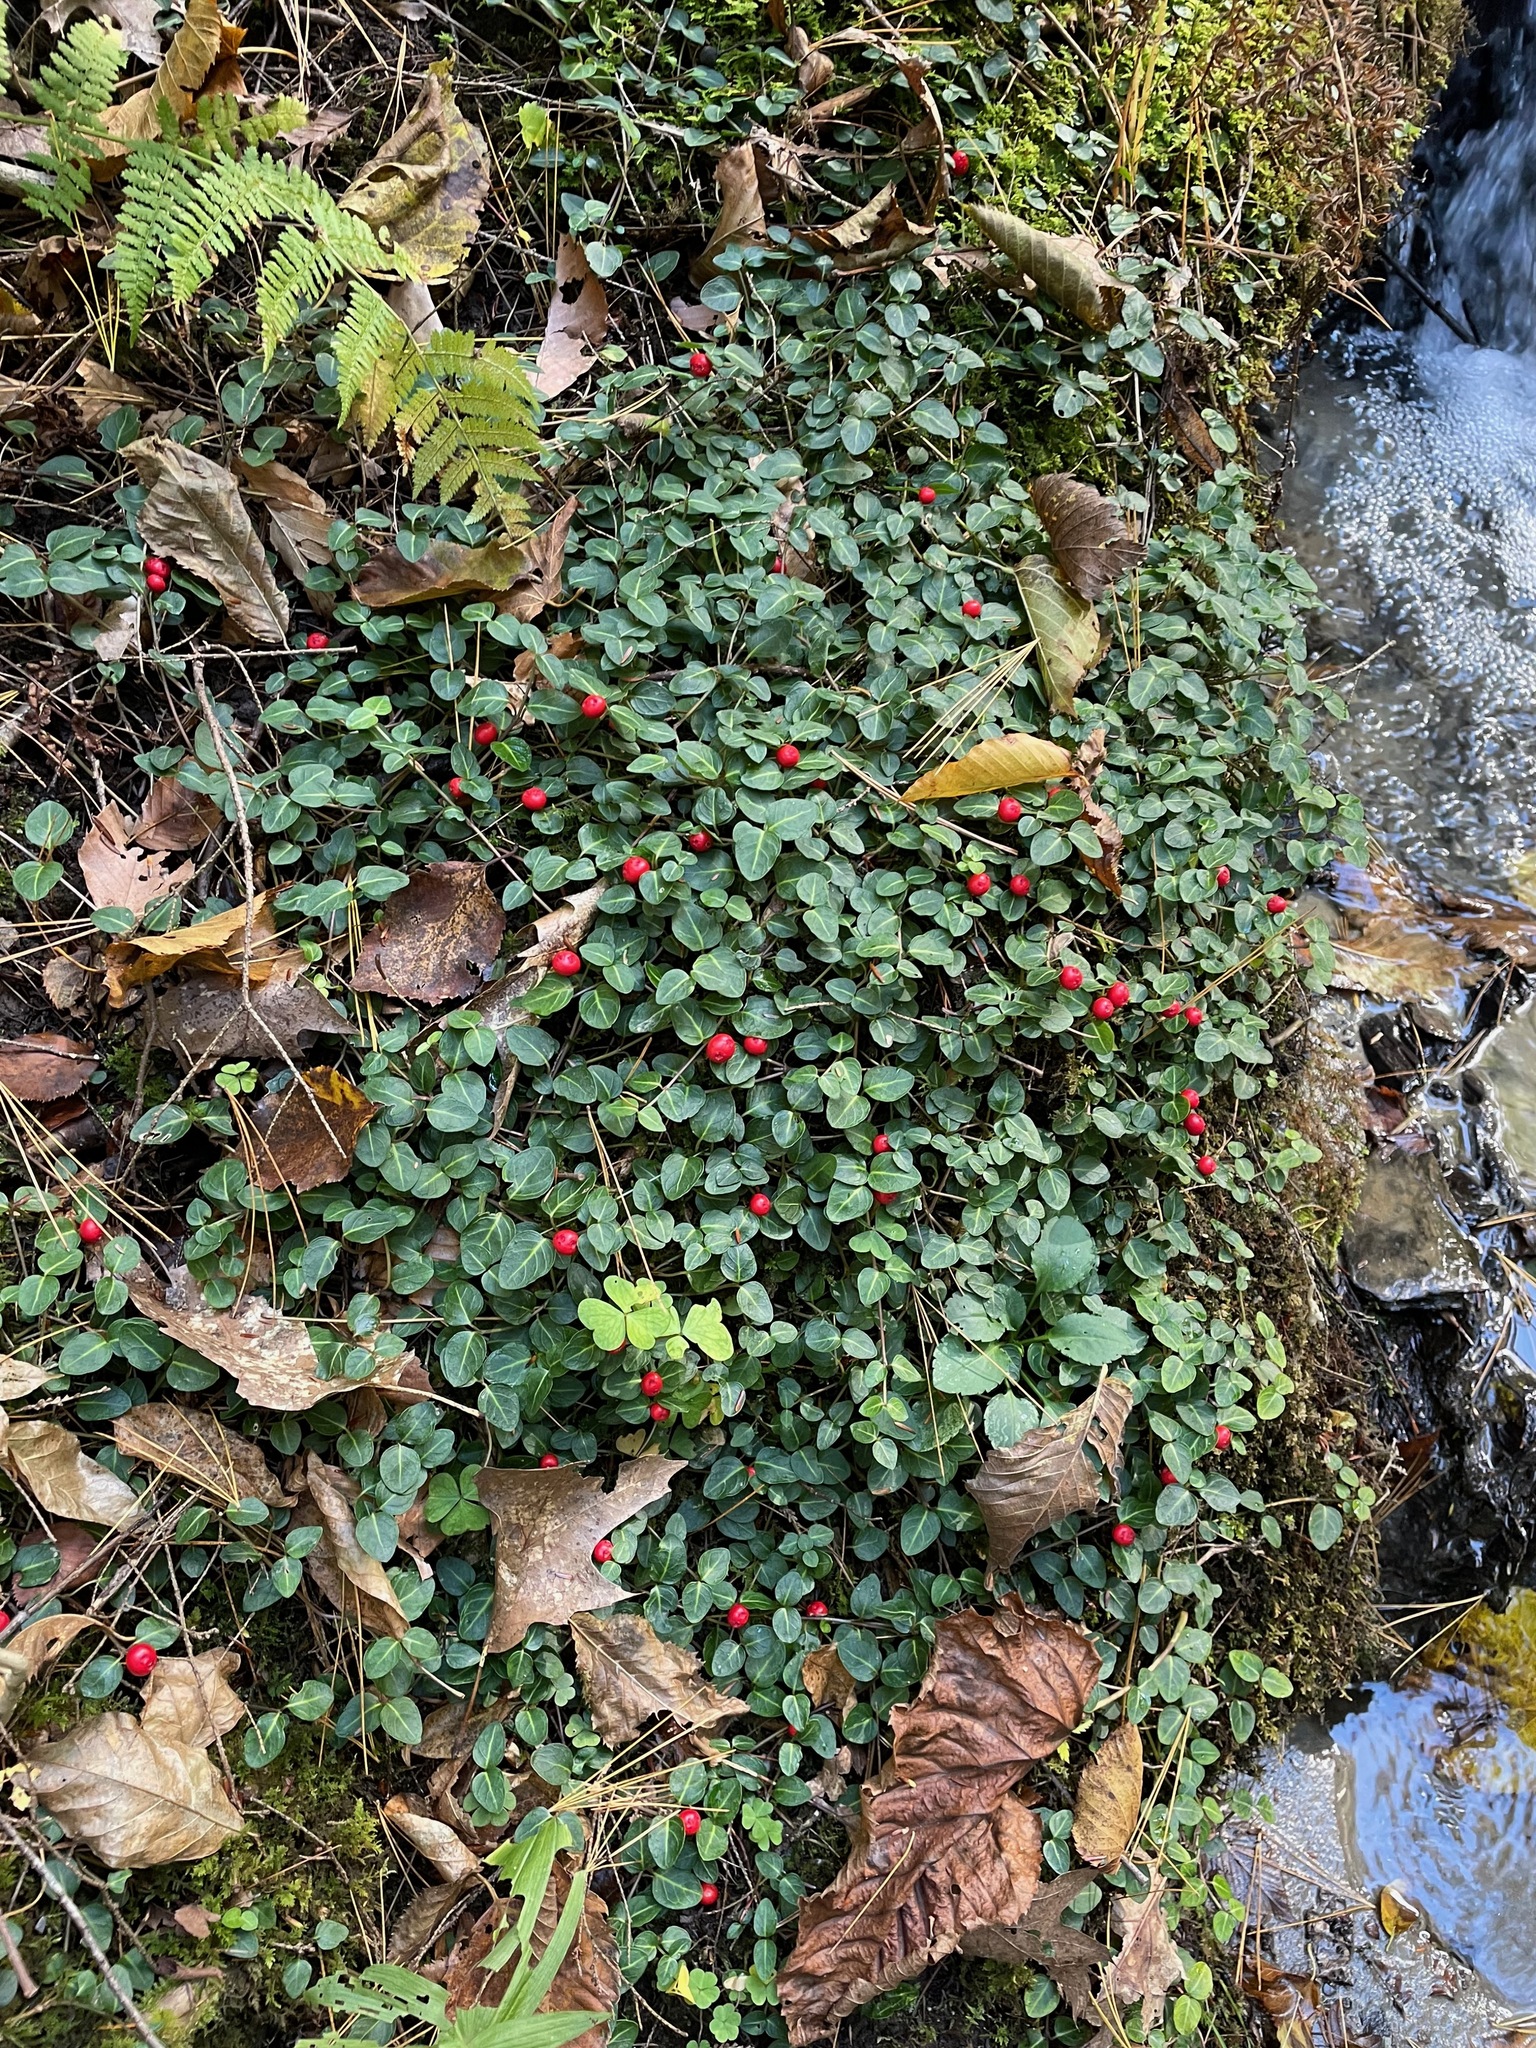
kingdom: Plantae
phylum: Tracheophyta
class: Magnoliopsida
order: Gentianales
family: Rubiaceae
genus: Mitchella
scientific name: Mitchella repens
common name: Partridge-berry
